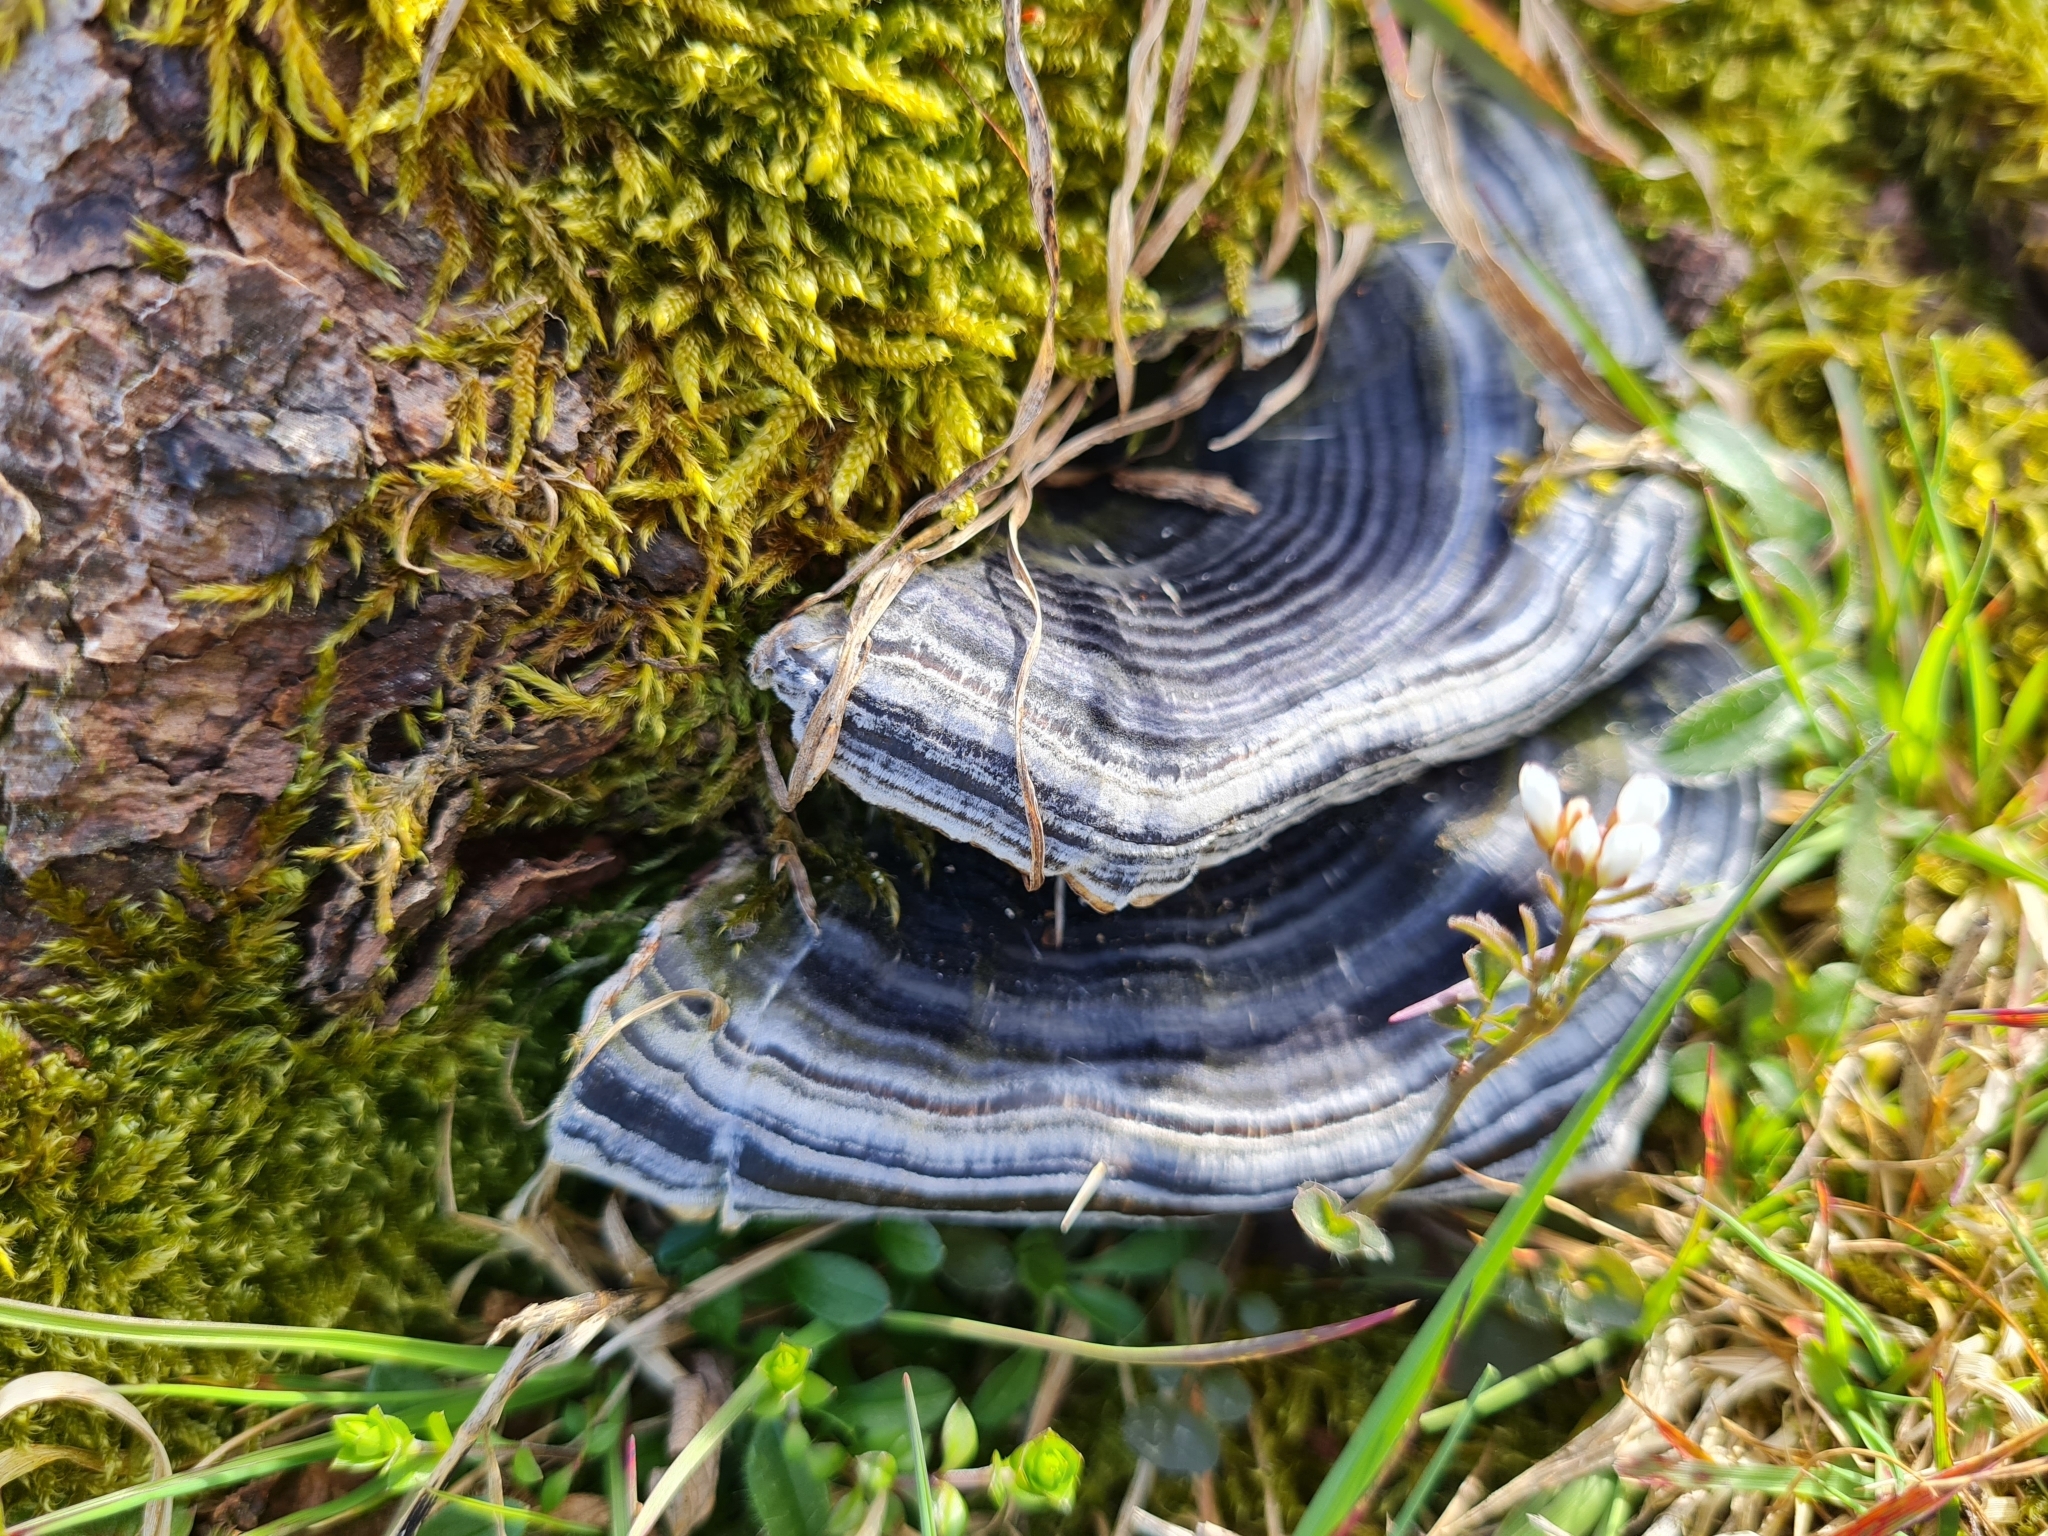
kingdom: Fungi
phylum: Basidiomycota
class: Agaricomycetes
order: Polyporales
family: Polyporaceae
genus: Trametes
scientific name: Trametes versicolor
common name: Turkeytail
